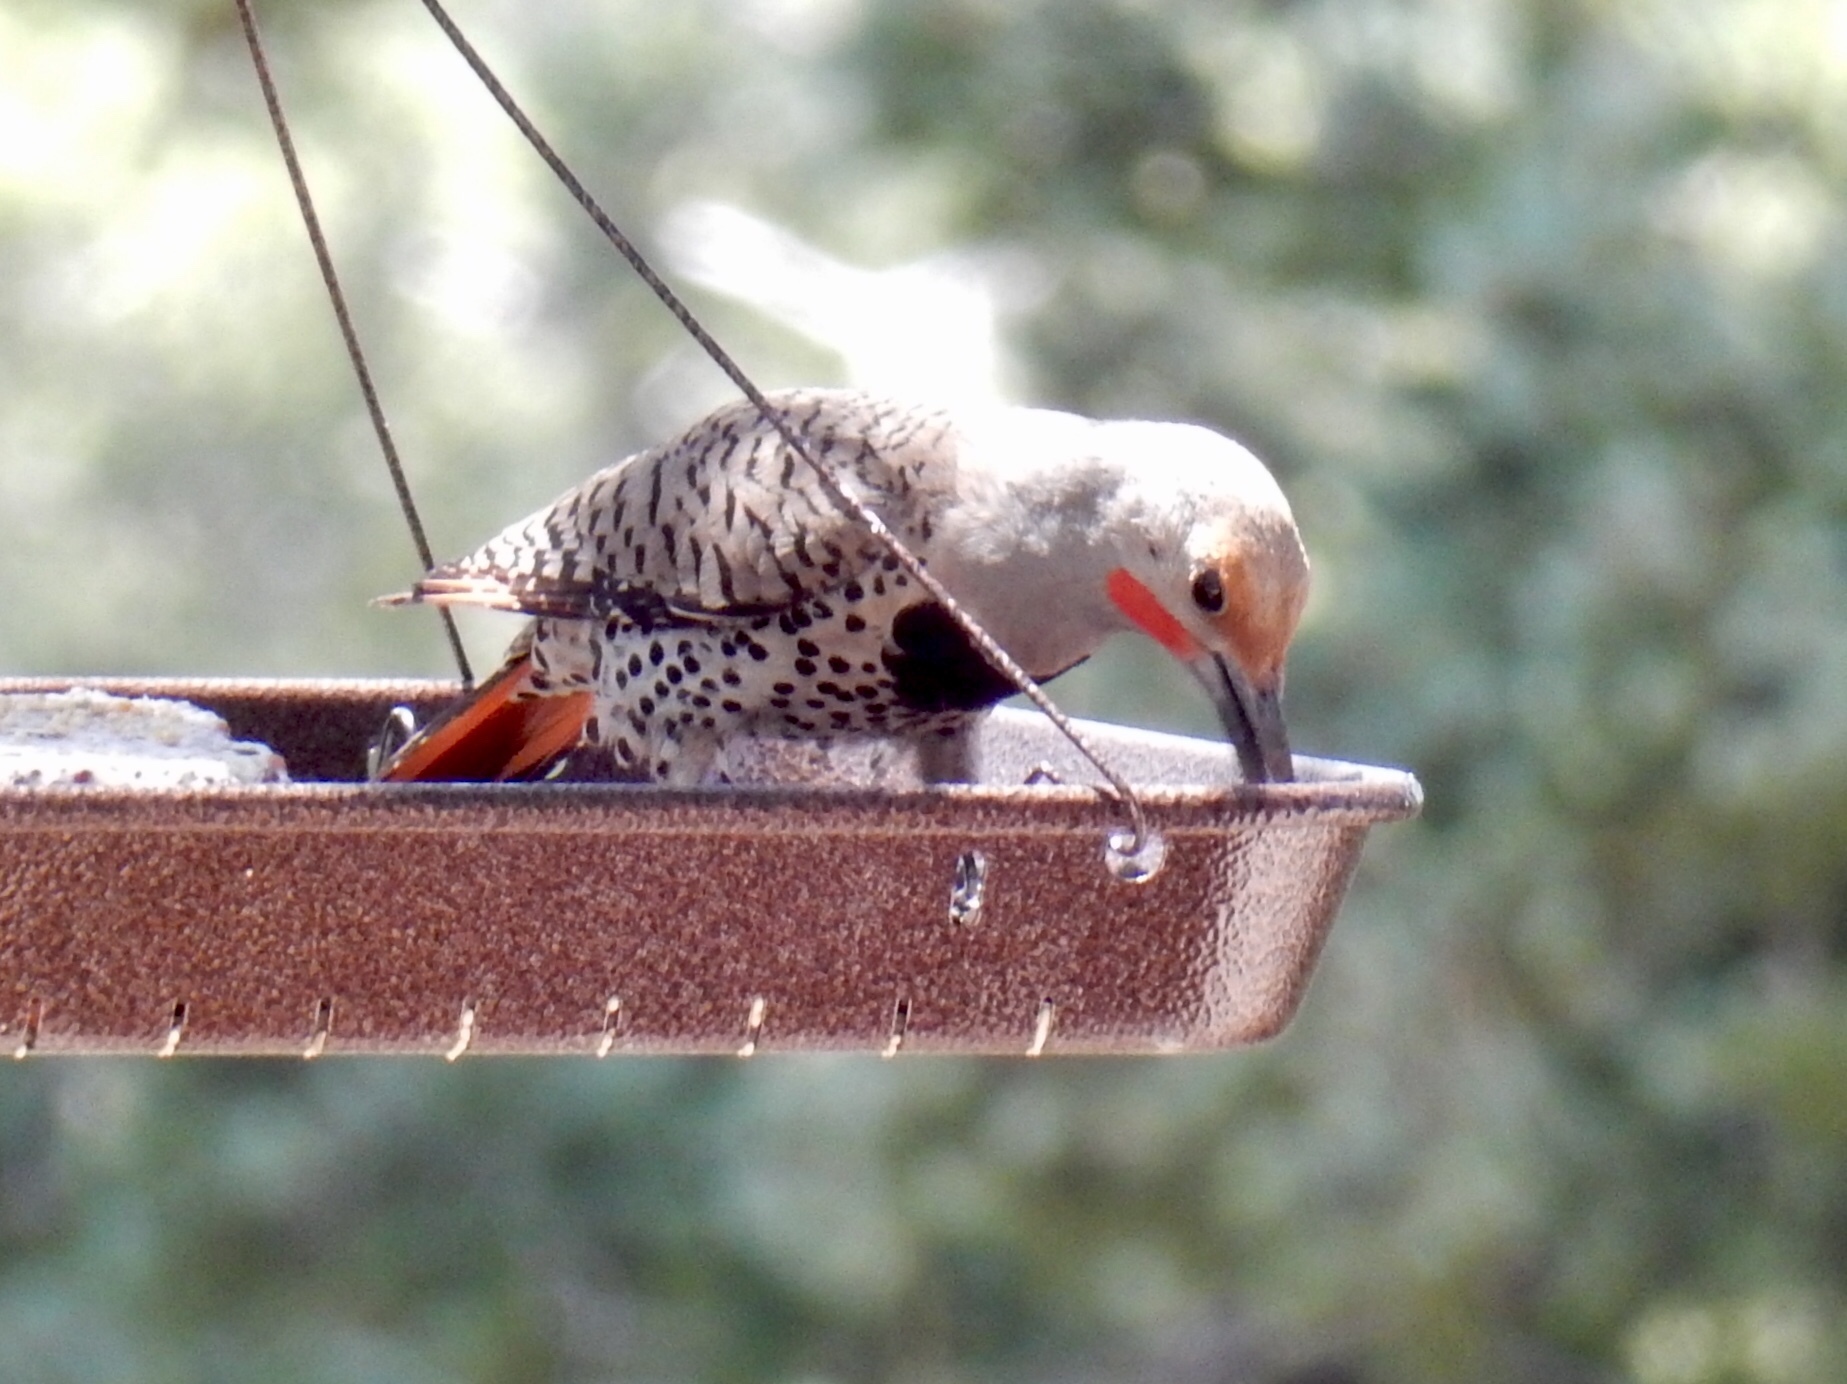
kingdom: Animalia
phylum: Chordata
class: Aves
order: Piciformes
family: Picidae
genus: Colaptes
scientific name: Colaptes auratus
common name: Northern flicker
